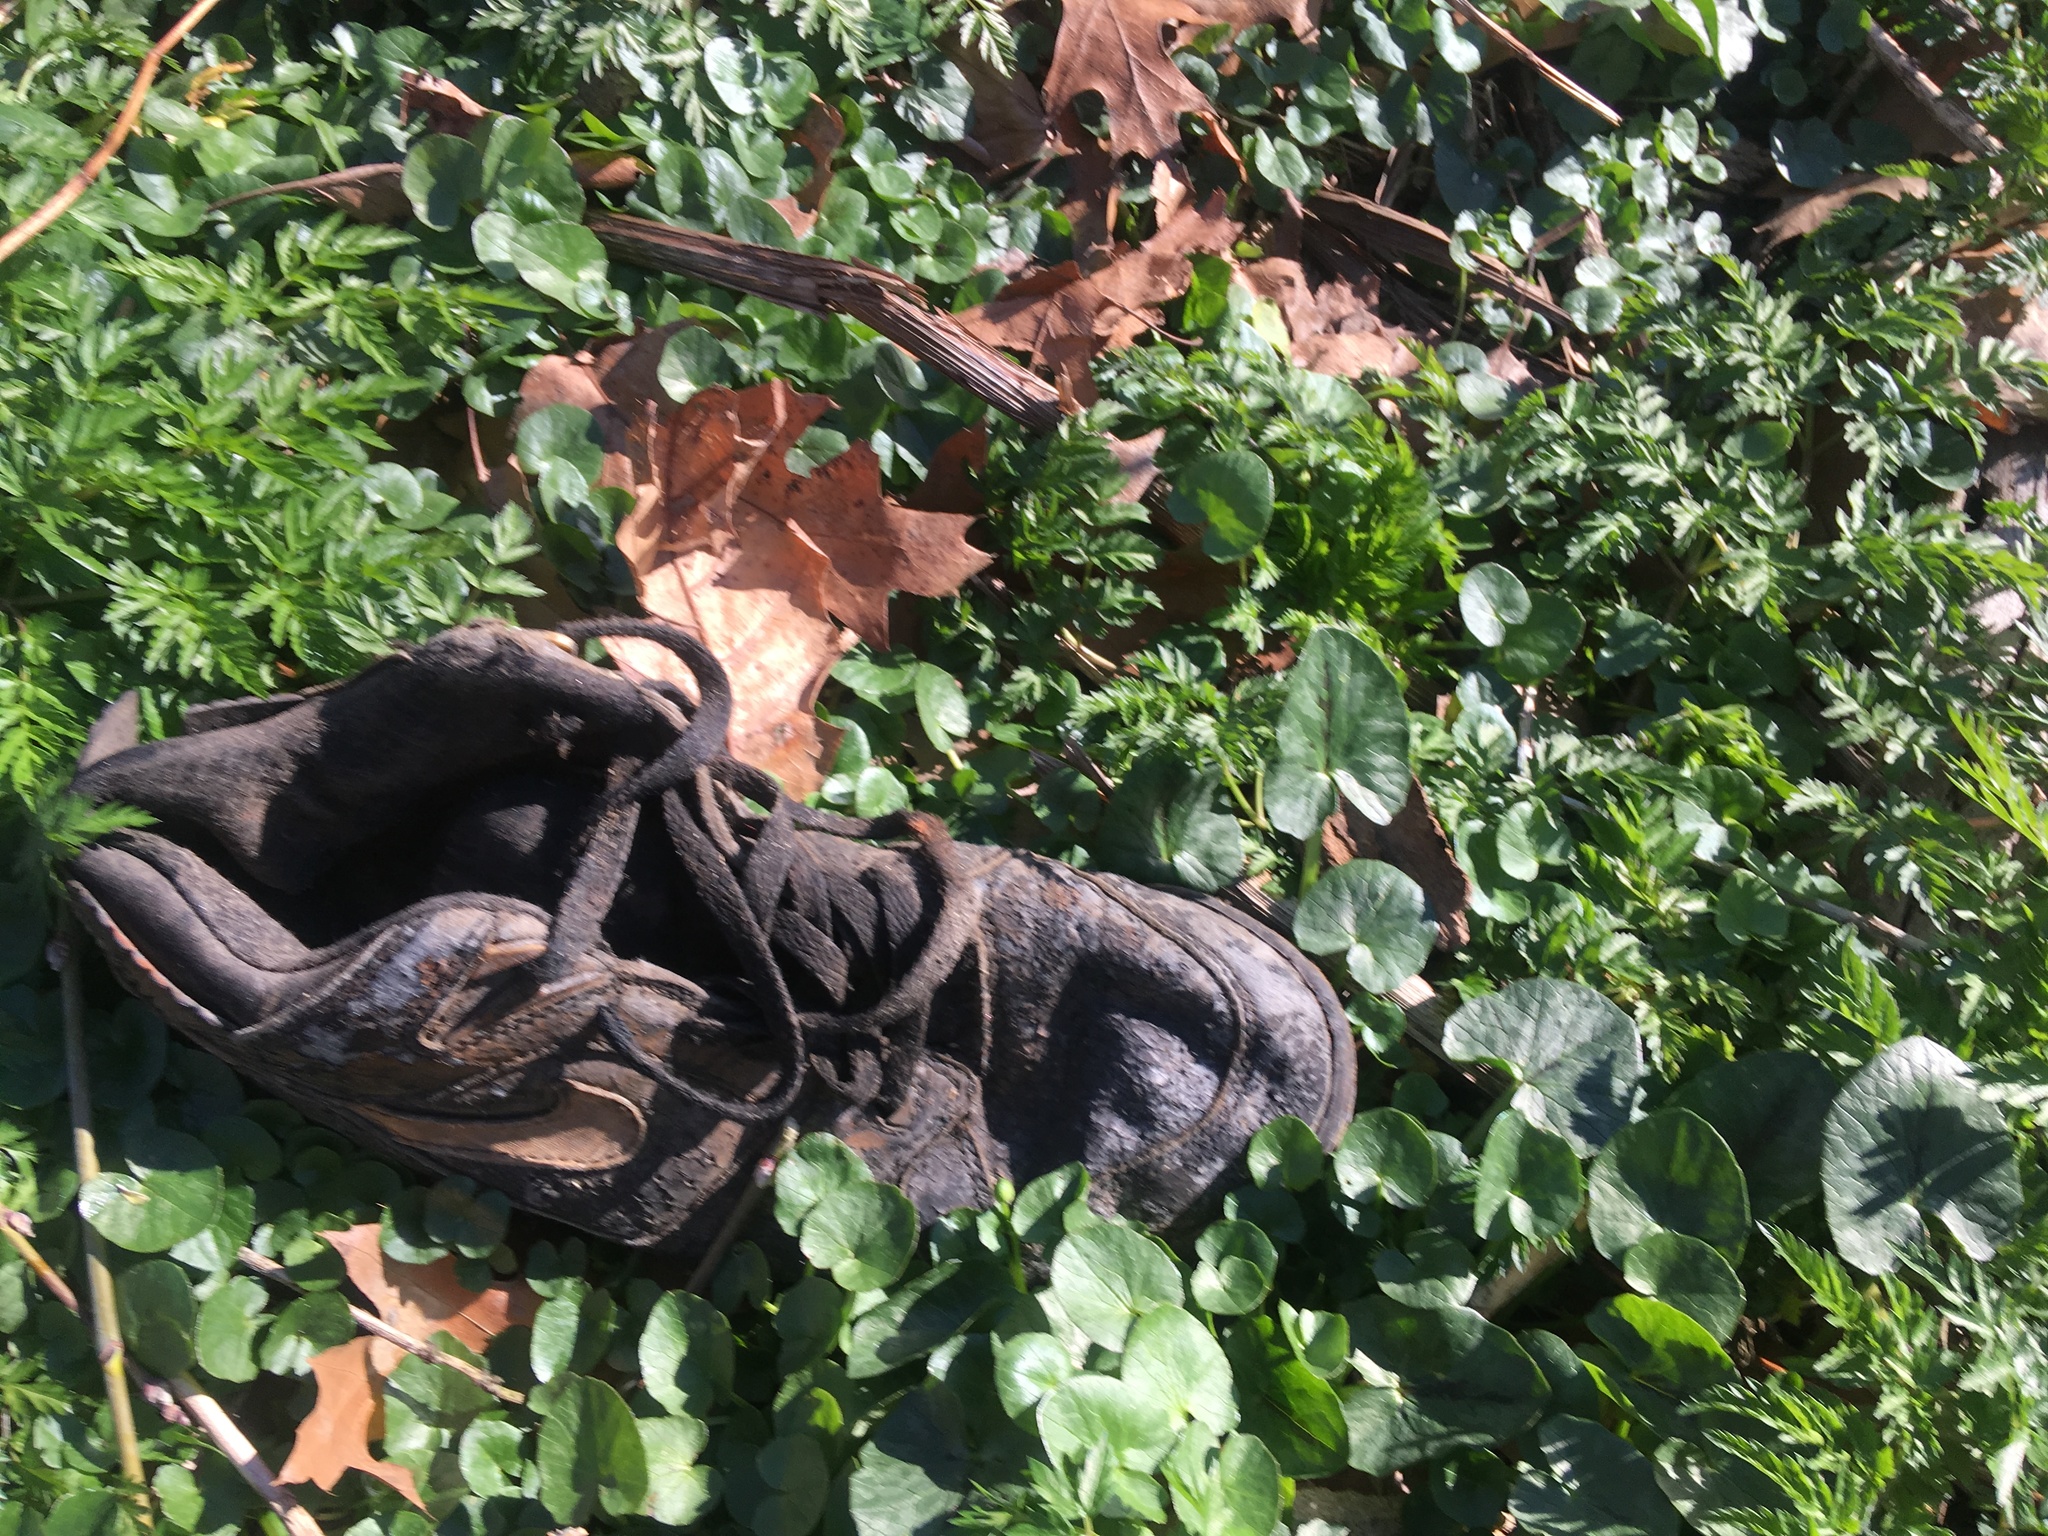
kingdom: Plantae
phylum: Tracheophyta
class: Magnoliopsida
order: Ranunculales
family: Ranunculaceae
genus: Ficaria
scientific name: Ficaria verna
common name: Lesser celandine
